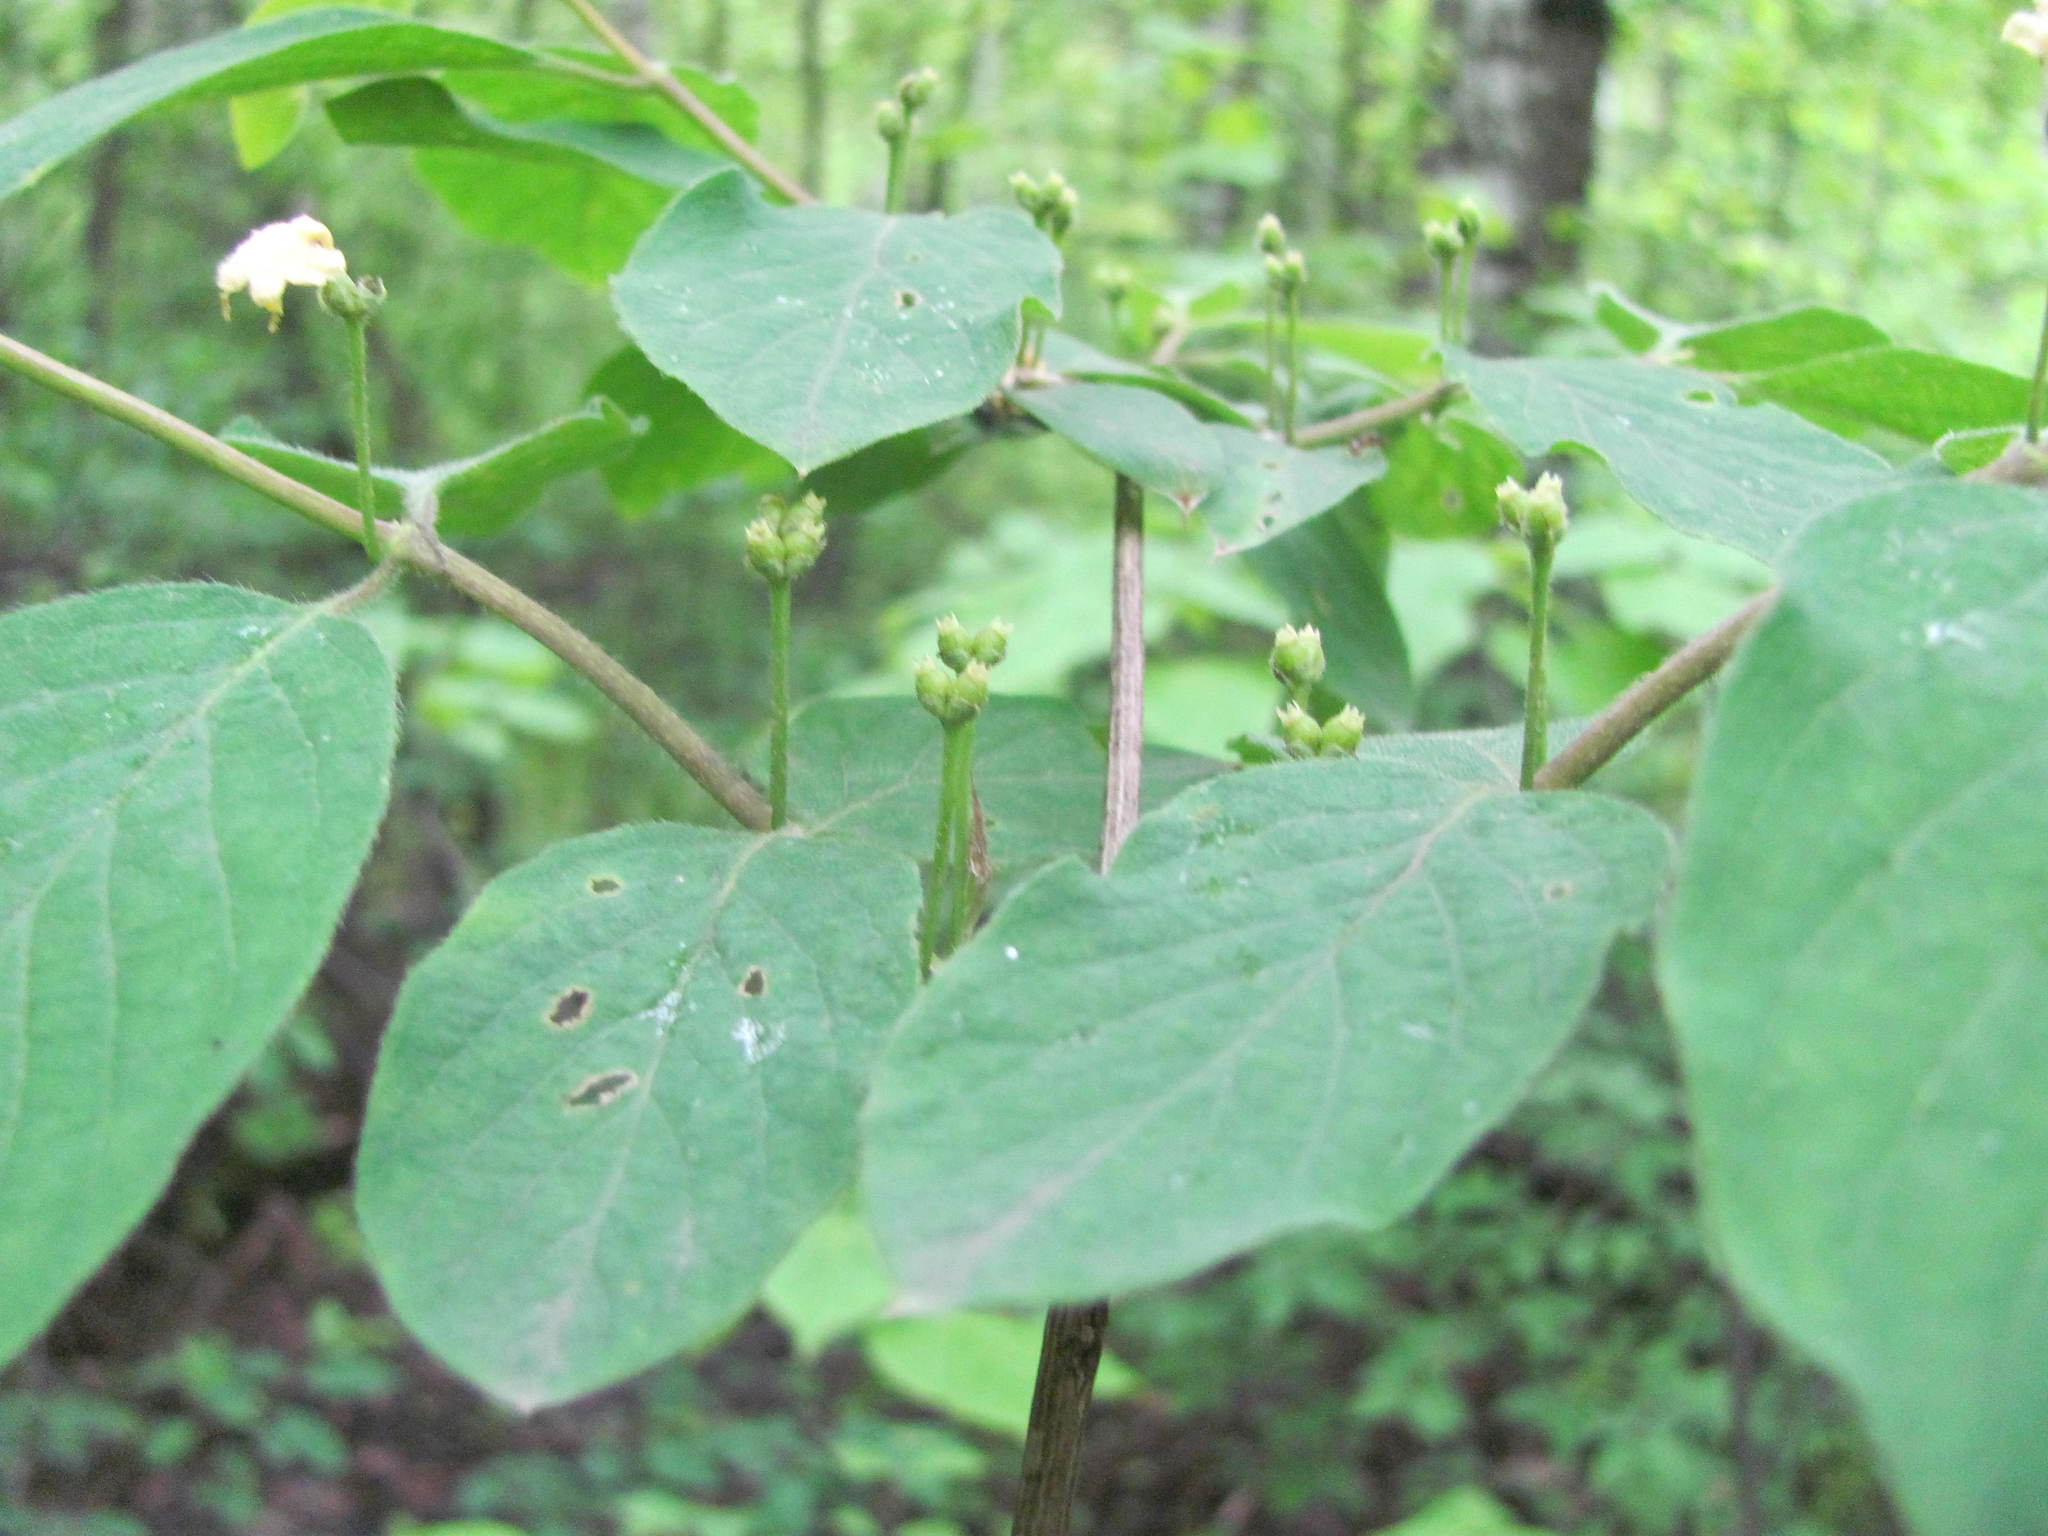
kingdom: Plantae
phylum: Tracheophyta
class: Magnoliopsida
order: Dipsacales
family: Caprifoliaceae
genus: Lonicera
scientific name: Lonicera xylosteum
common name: Fly honeysuckle
